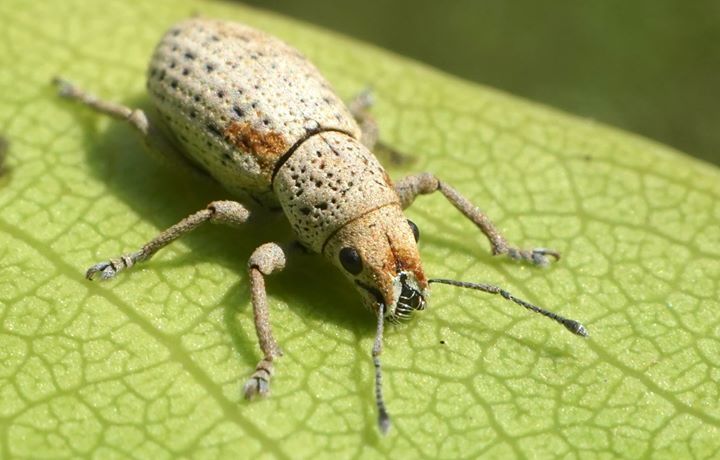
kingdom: Animalia
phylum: Arthropoda
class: Insecta
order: Coleoptera
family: Curculionidae
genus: Artipus
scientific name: Artipus floridanus
